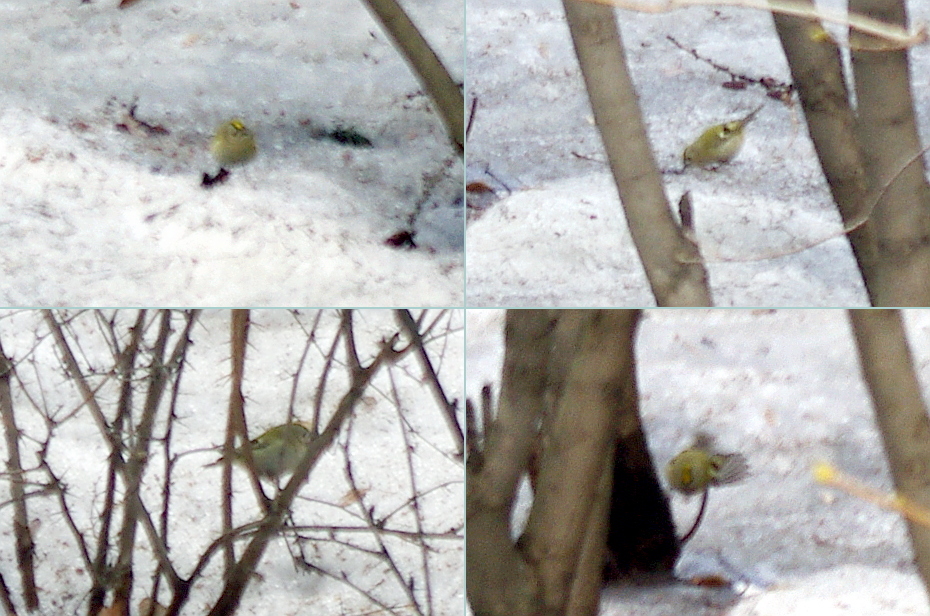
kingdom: Animalia
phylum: Chordata
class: Aves
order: Passeriformes
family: Regulidae
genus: Regulus
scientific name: Regulus regulus
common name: Goldcrest
